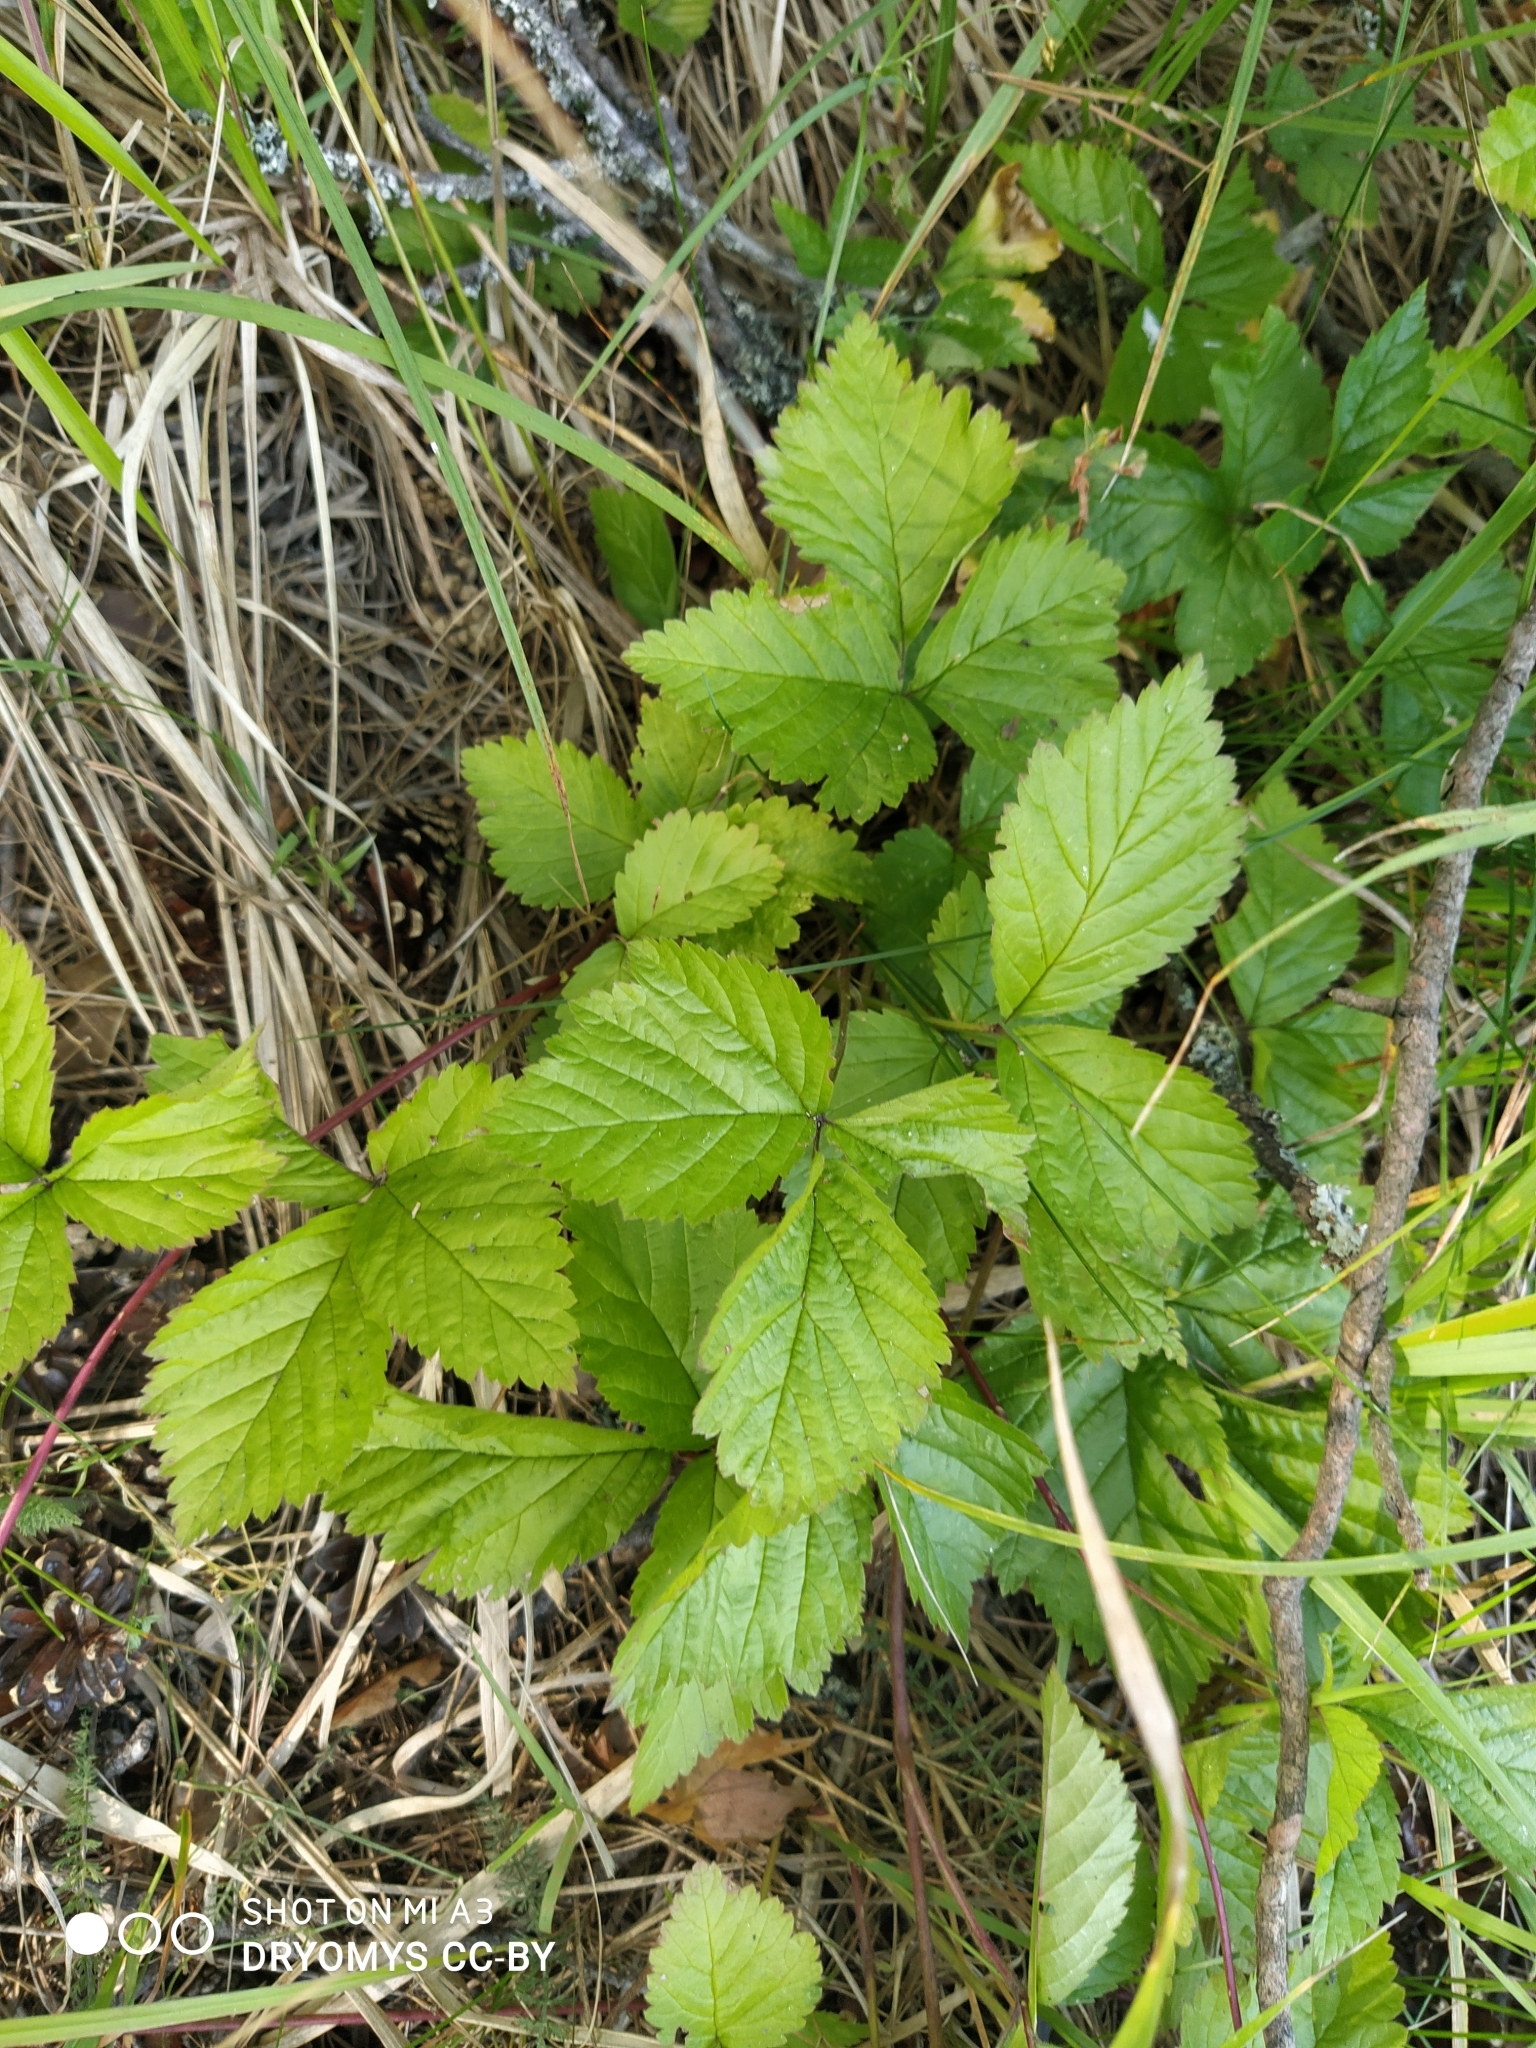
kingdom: Plantae
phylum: Tracheophyta
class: Magnoliopsida
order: Rosales
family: Rosaceae
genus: Rubus
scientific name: Rubus saxatilis
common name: Stone bramble
